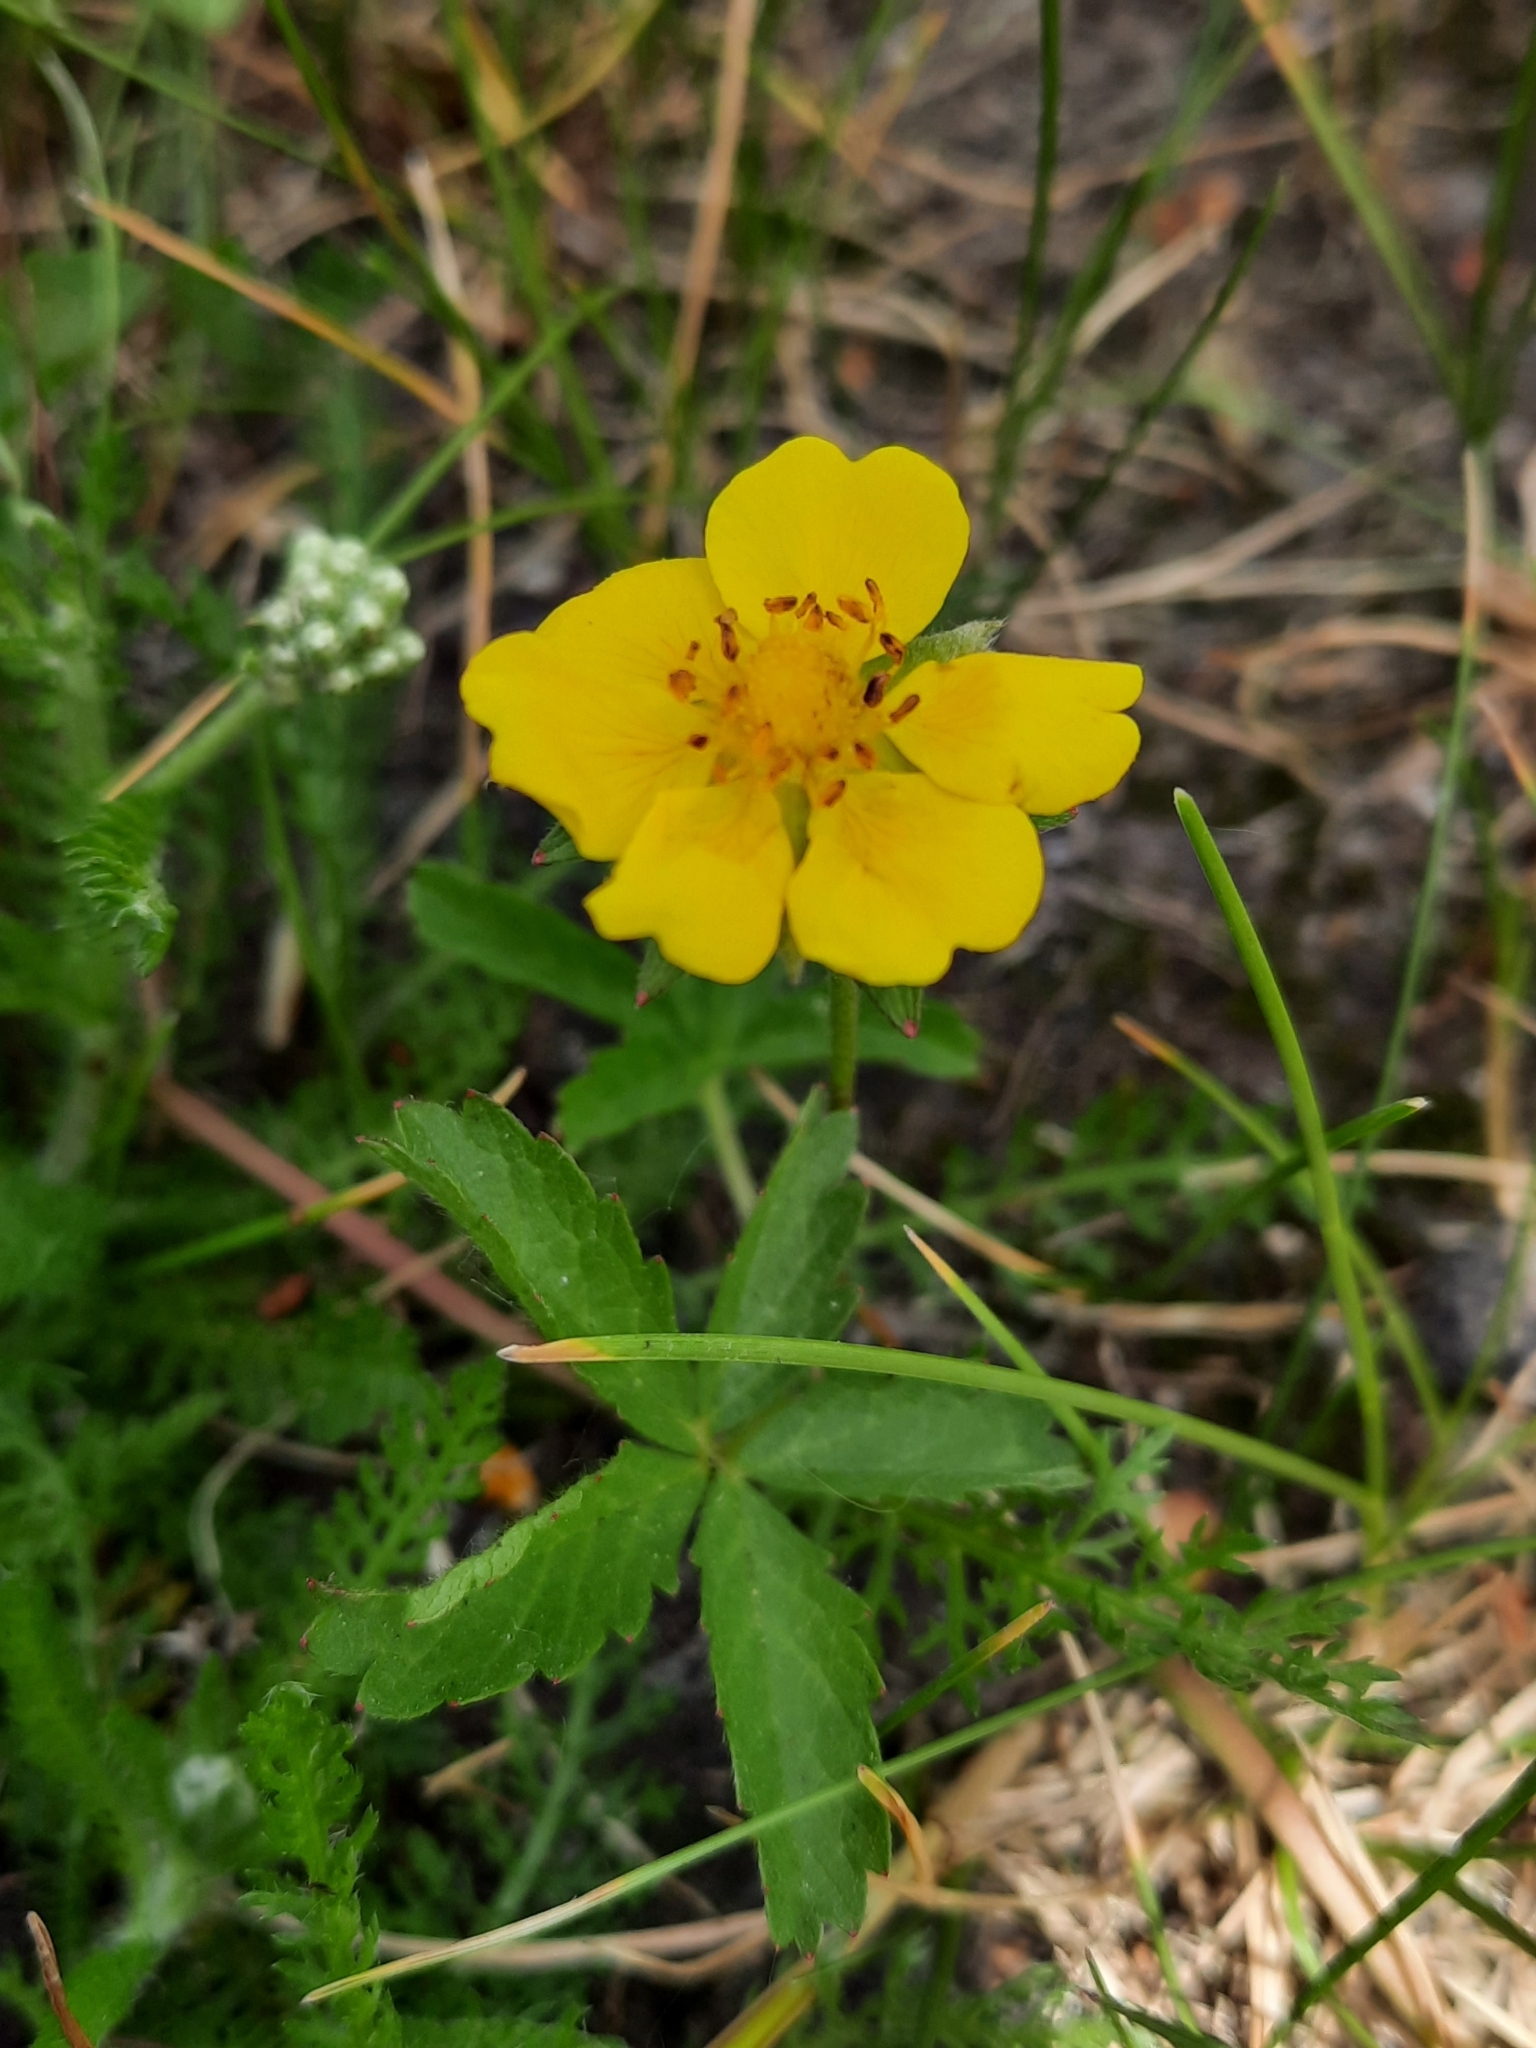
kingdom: Plantae
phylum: Tracheophyta
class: Magnoliopsida
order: Rosales
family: Rosaceae
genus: Potentilla
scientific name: Potentilla reptans
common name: Creeping cinquefoil
